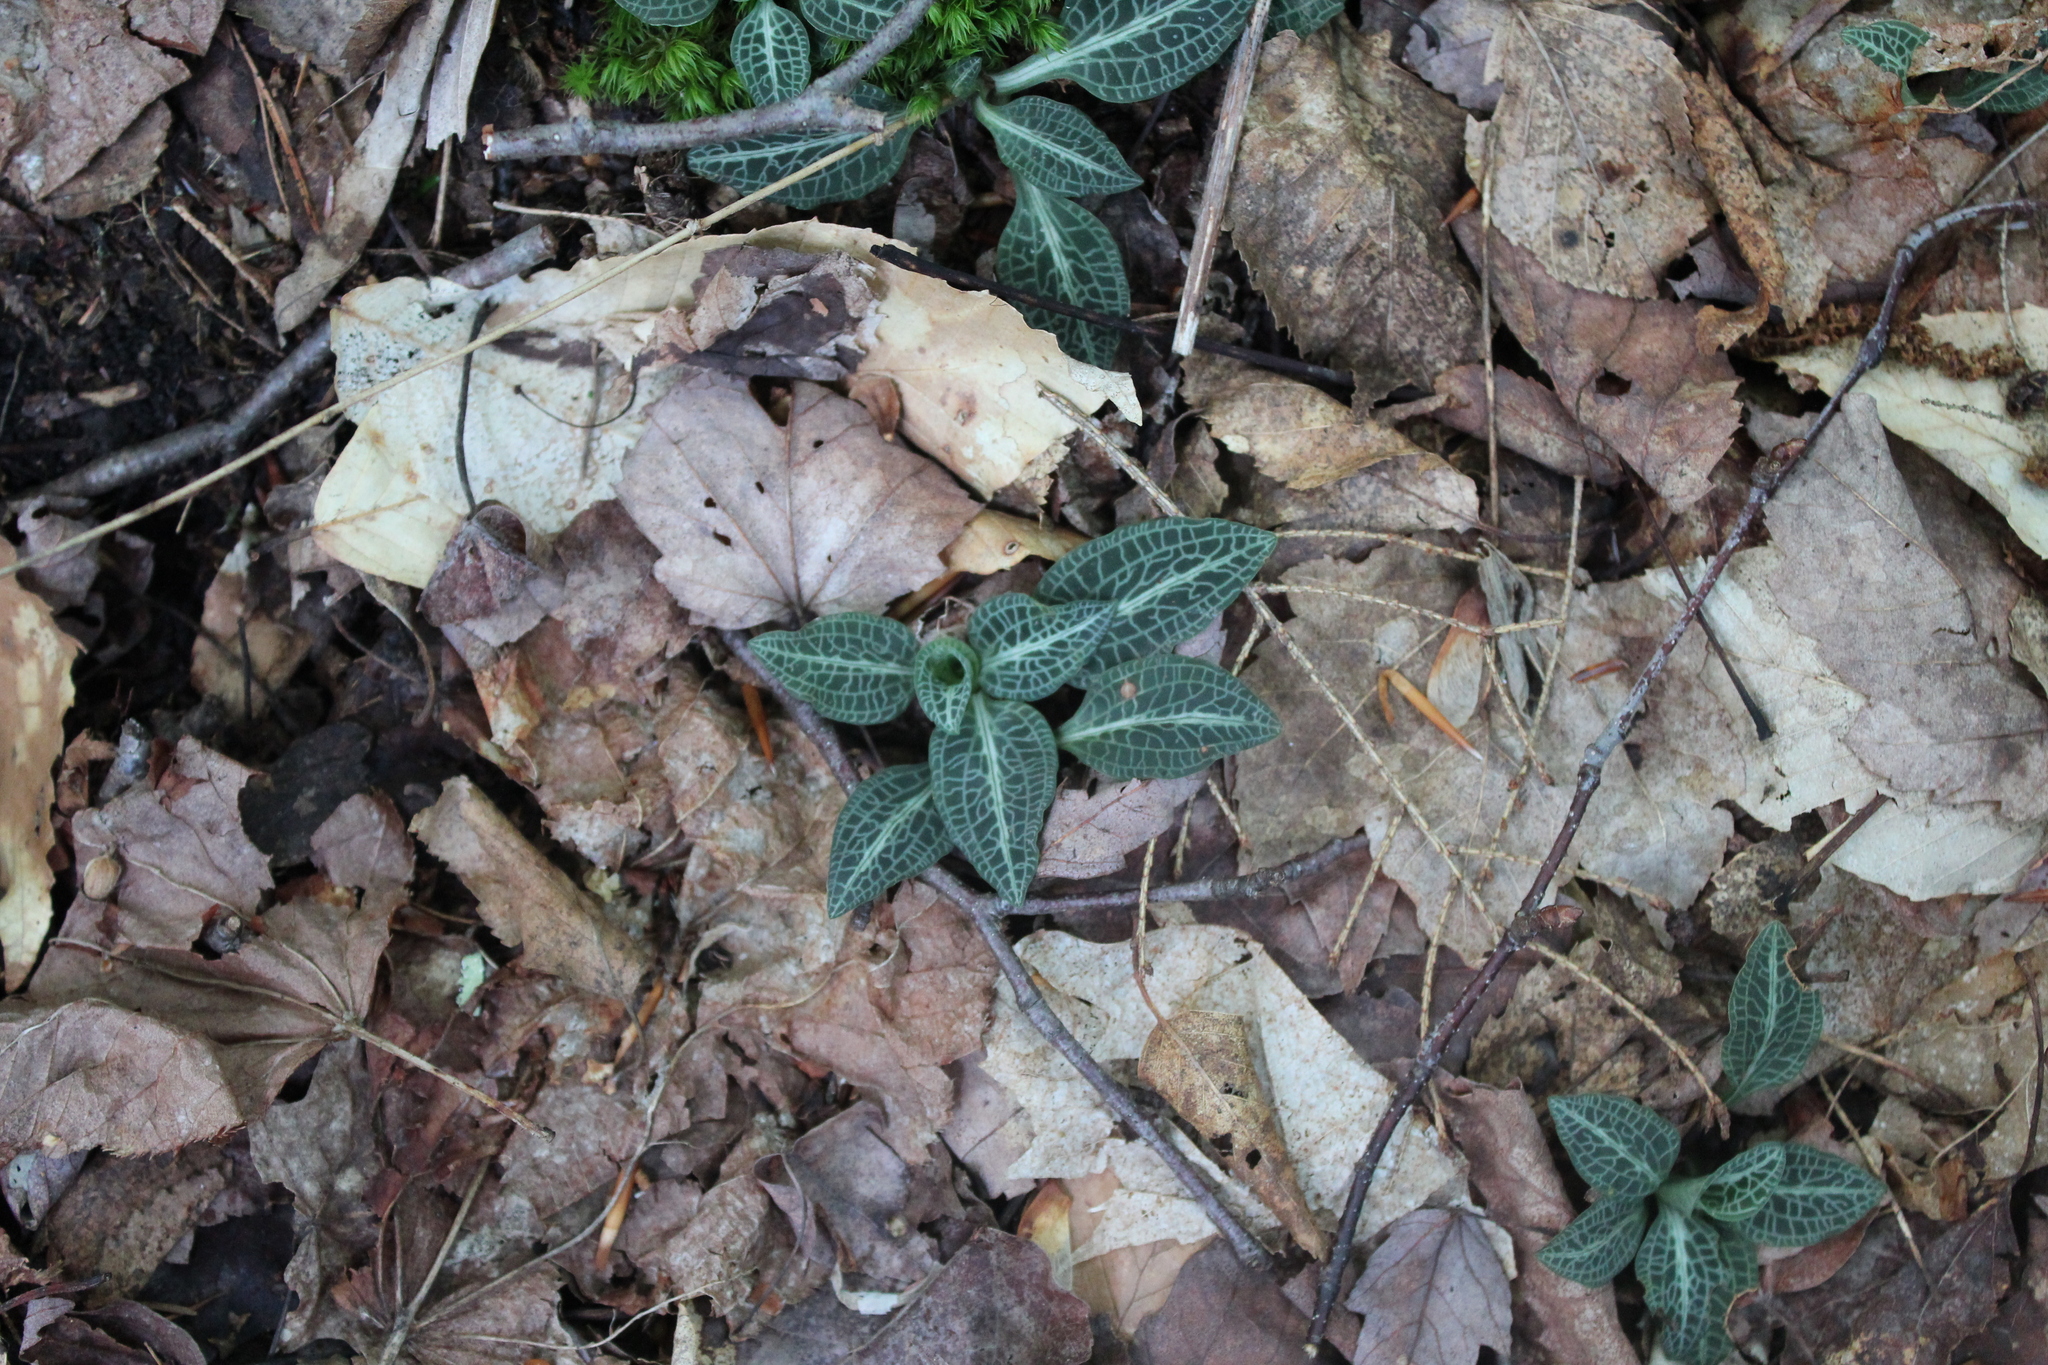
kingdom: Plantae
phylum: Tracheophyta
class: Liliopsida
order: Asparagales
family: Orchidaceae
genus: Goodyera
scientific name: Goodyera pubescens
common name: Downy rattlesnake-plantain
